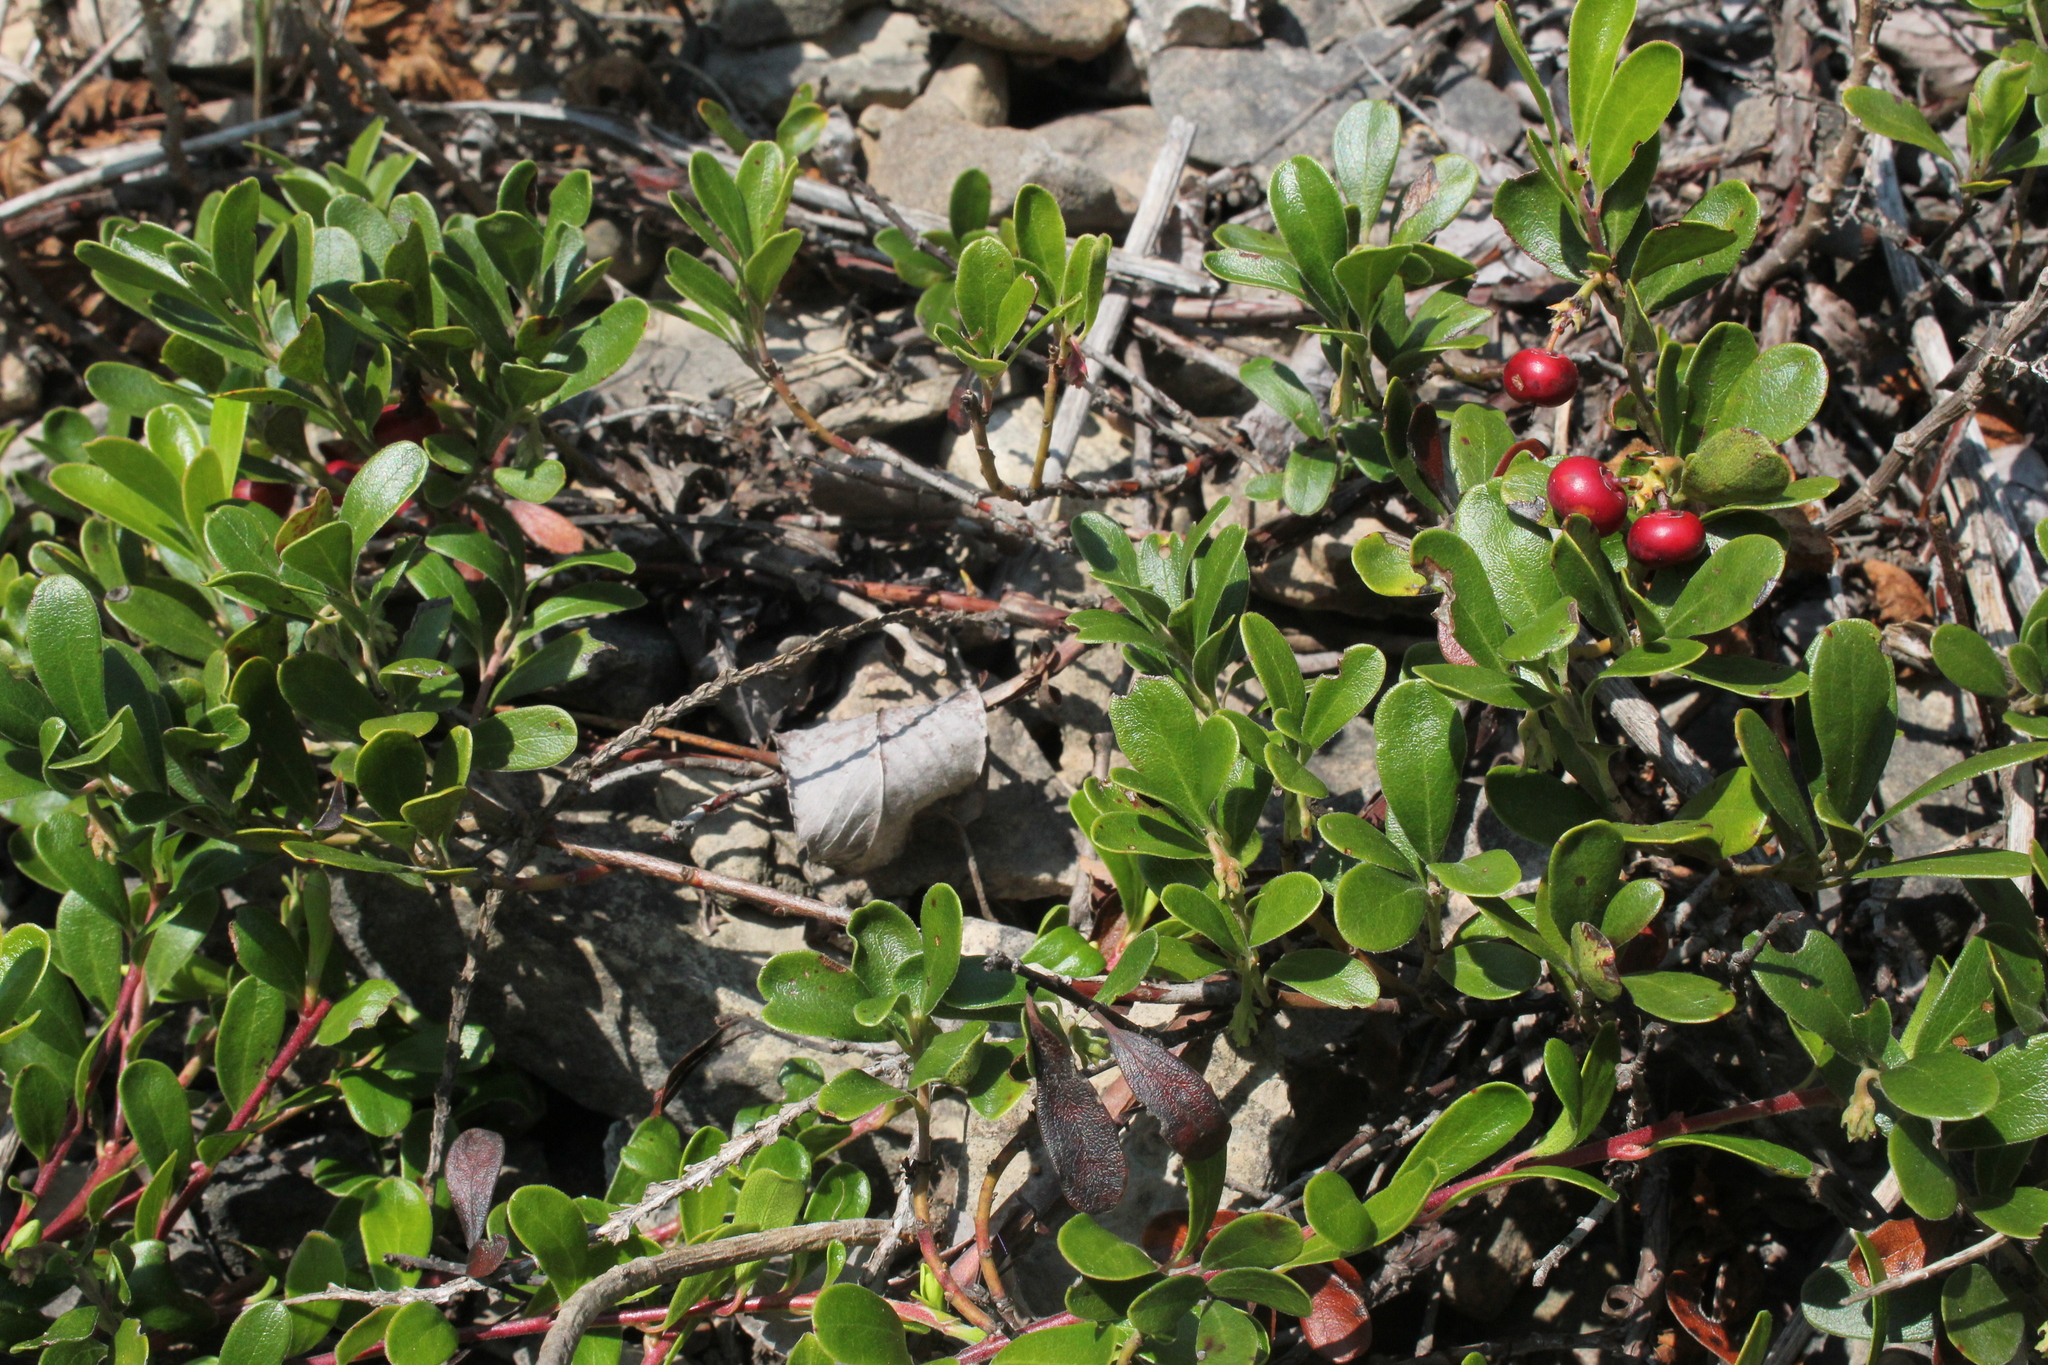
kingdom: Plantae
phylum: Tracheophyta
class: Magnoliopsida
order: Ericales
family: Ericaceae
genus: Arctostaphylos
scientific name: Arctostaphylos uva-ursi
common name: Bearberry
